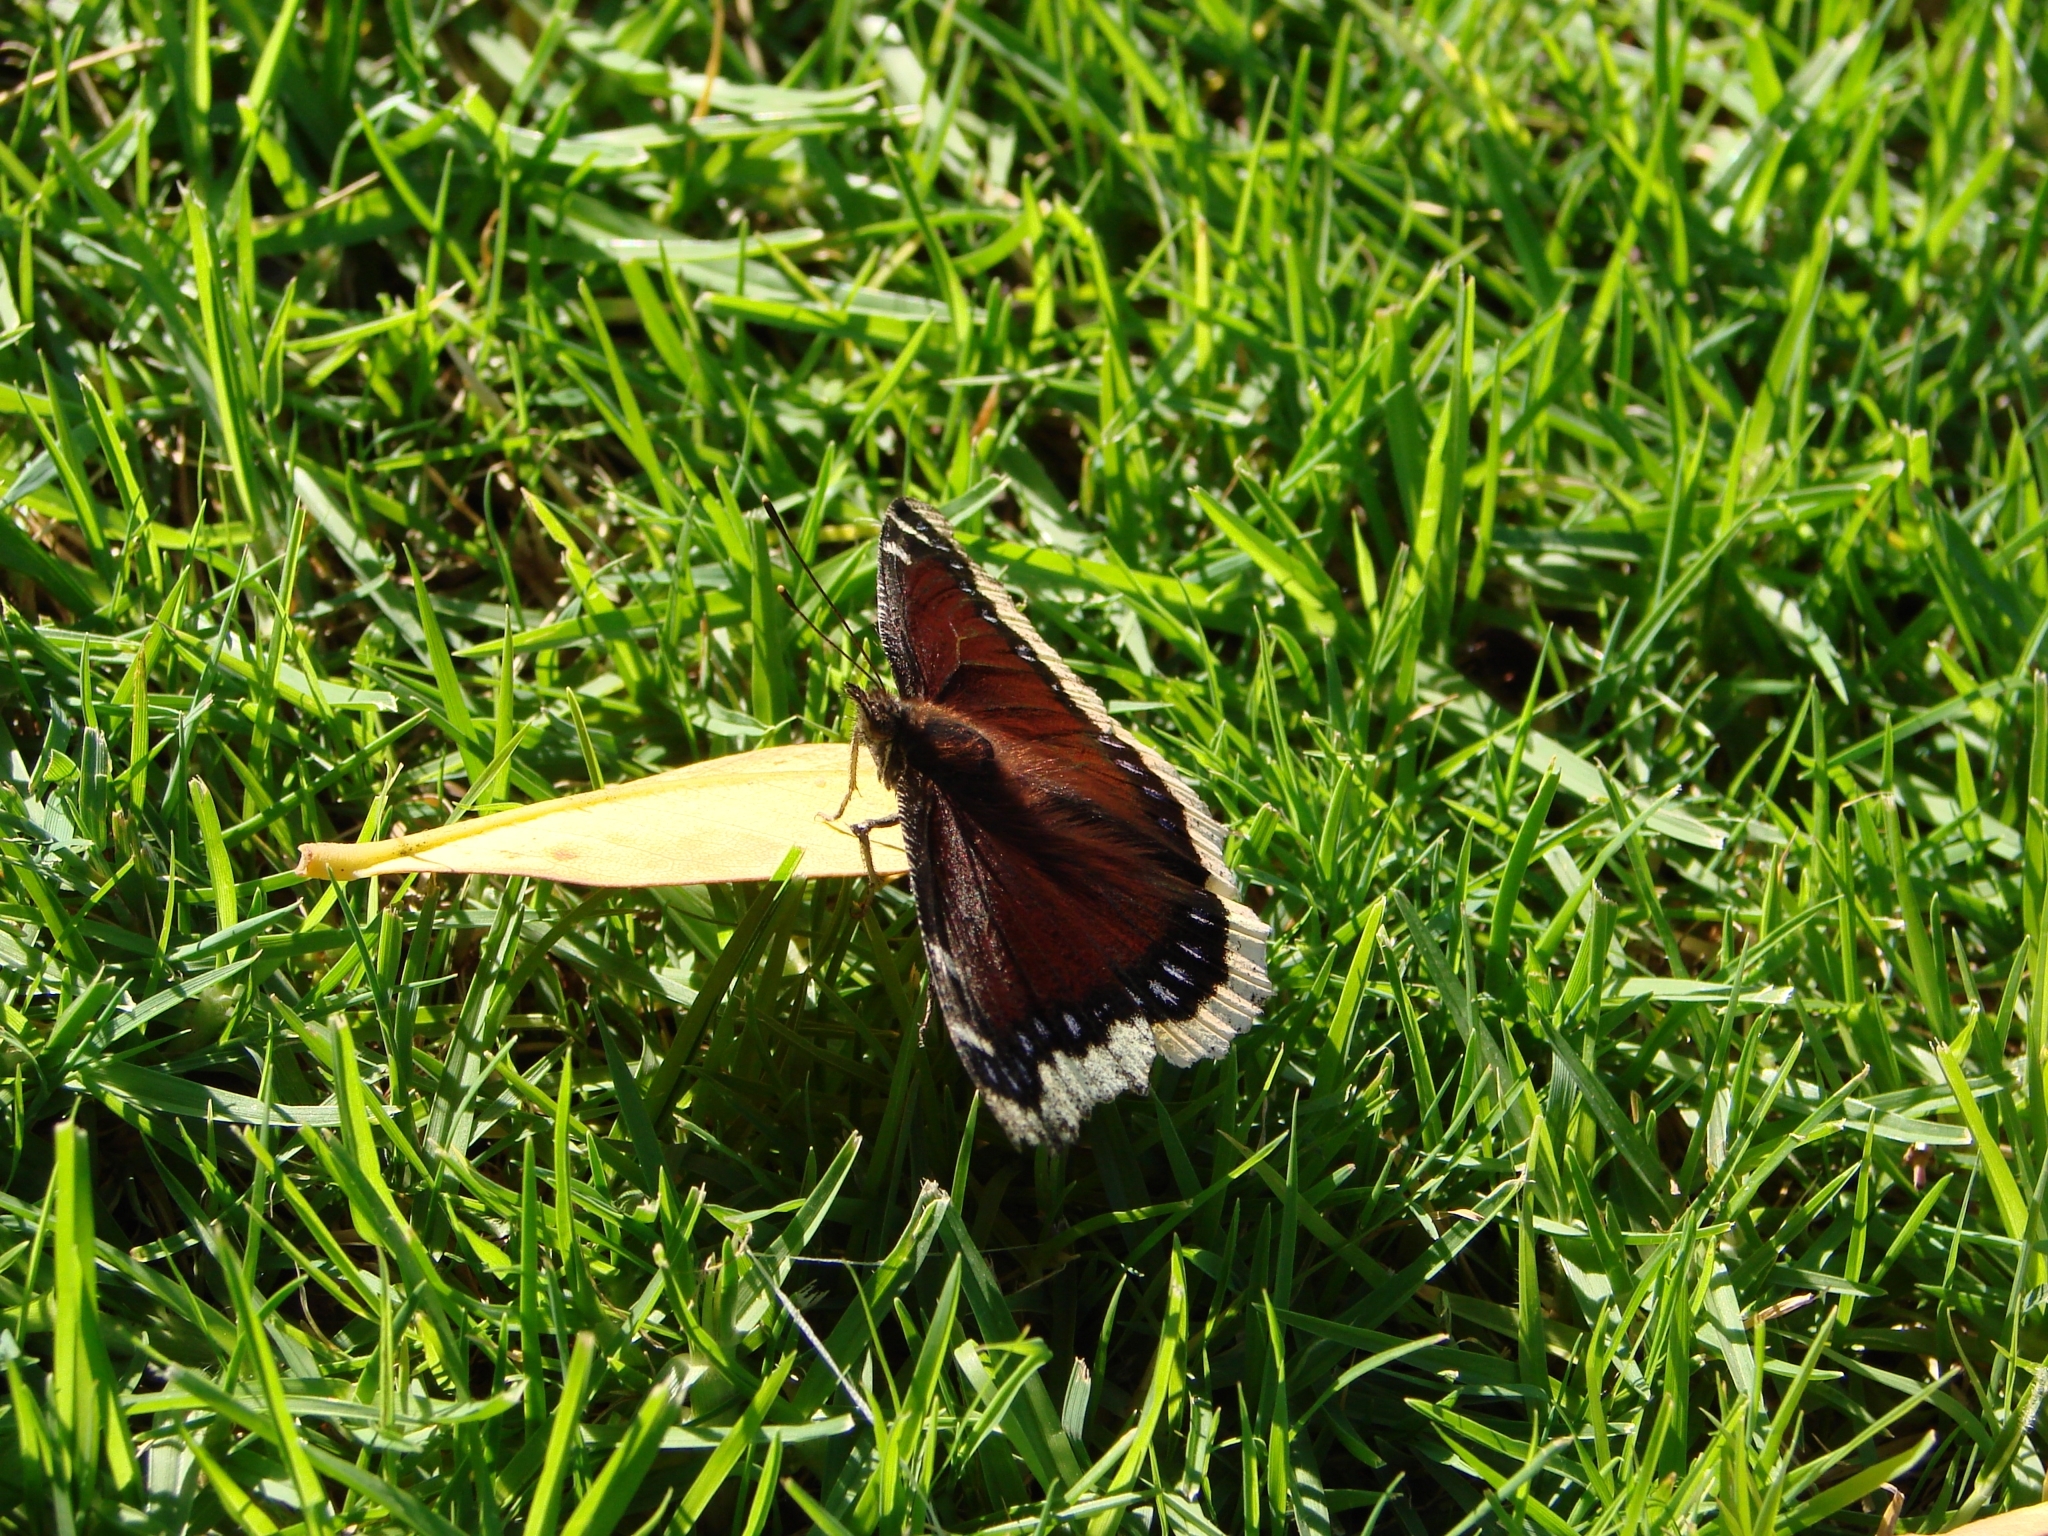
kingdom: Animalia
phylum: Arthropoda
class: Insecta
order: Lepidoptera
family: Nymphalidae
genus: Nymphalis
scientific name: Nymphalis antiopa
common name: Camberwell beauty
